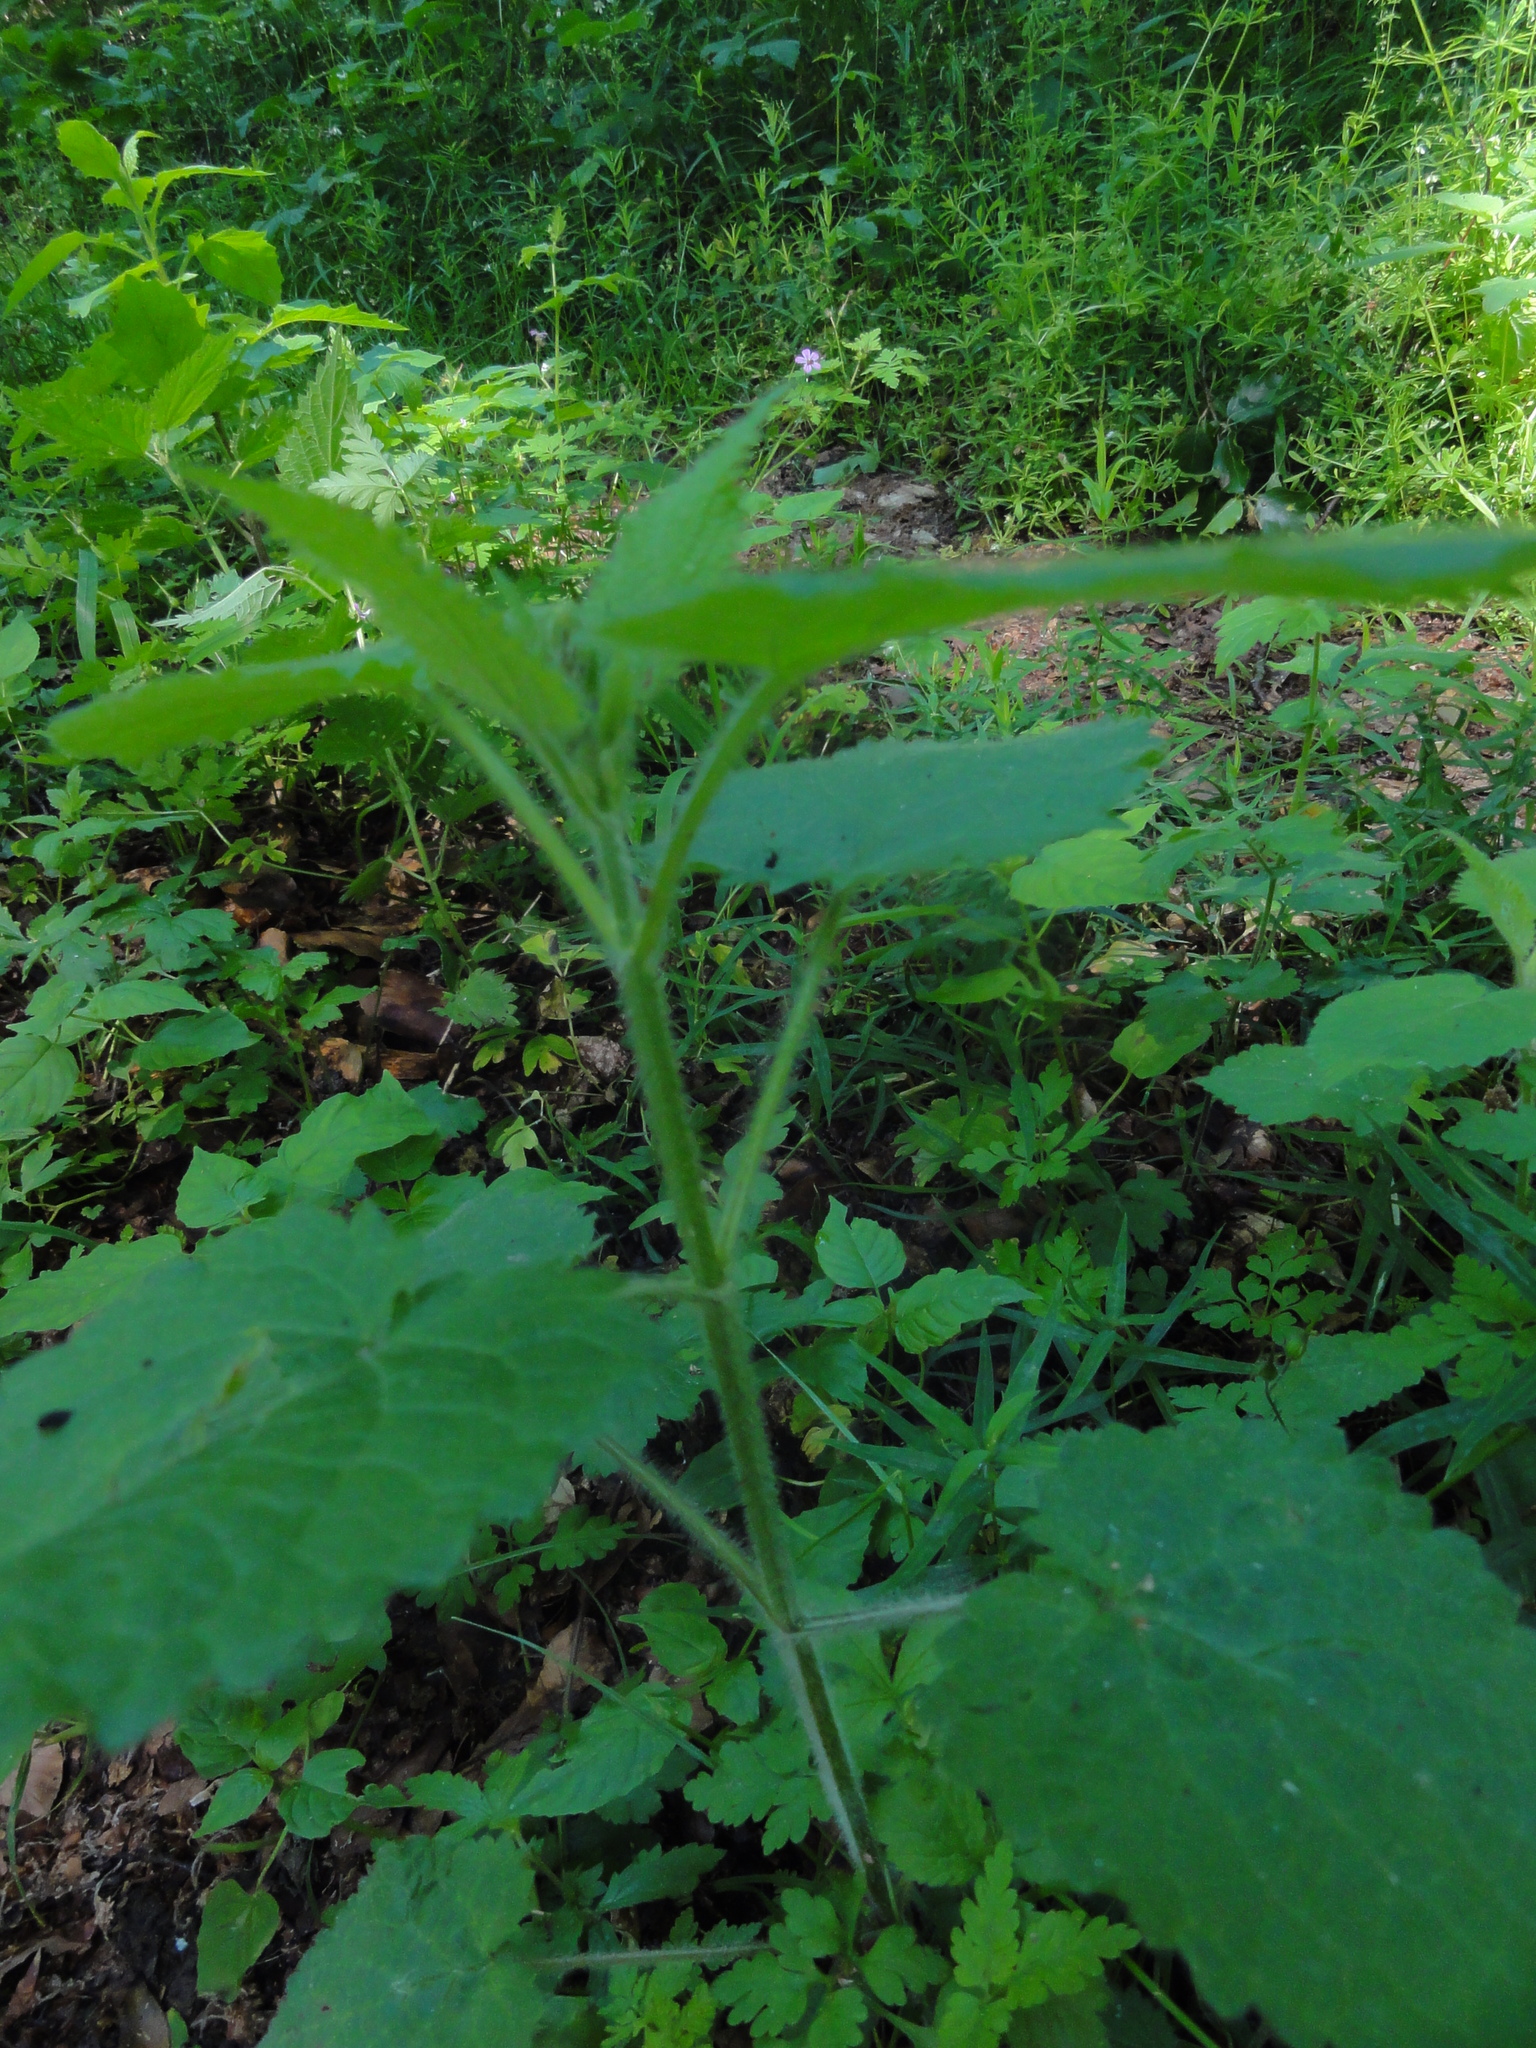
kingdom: Plantae
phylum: Tracheophyta
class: Magnoliopsida
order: Lamiales
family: Lamiaceae
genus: Stachys
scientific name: Stachys sylvatica
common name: Hedge woundwort
